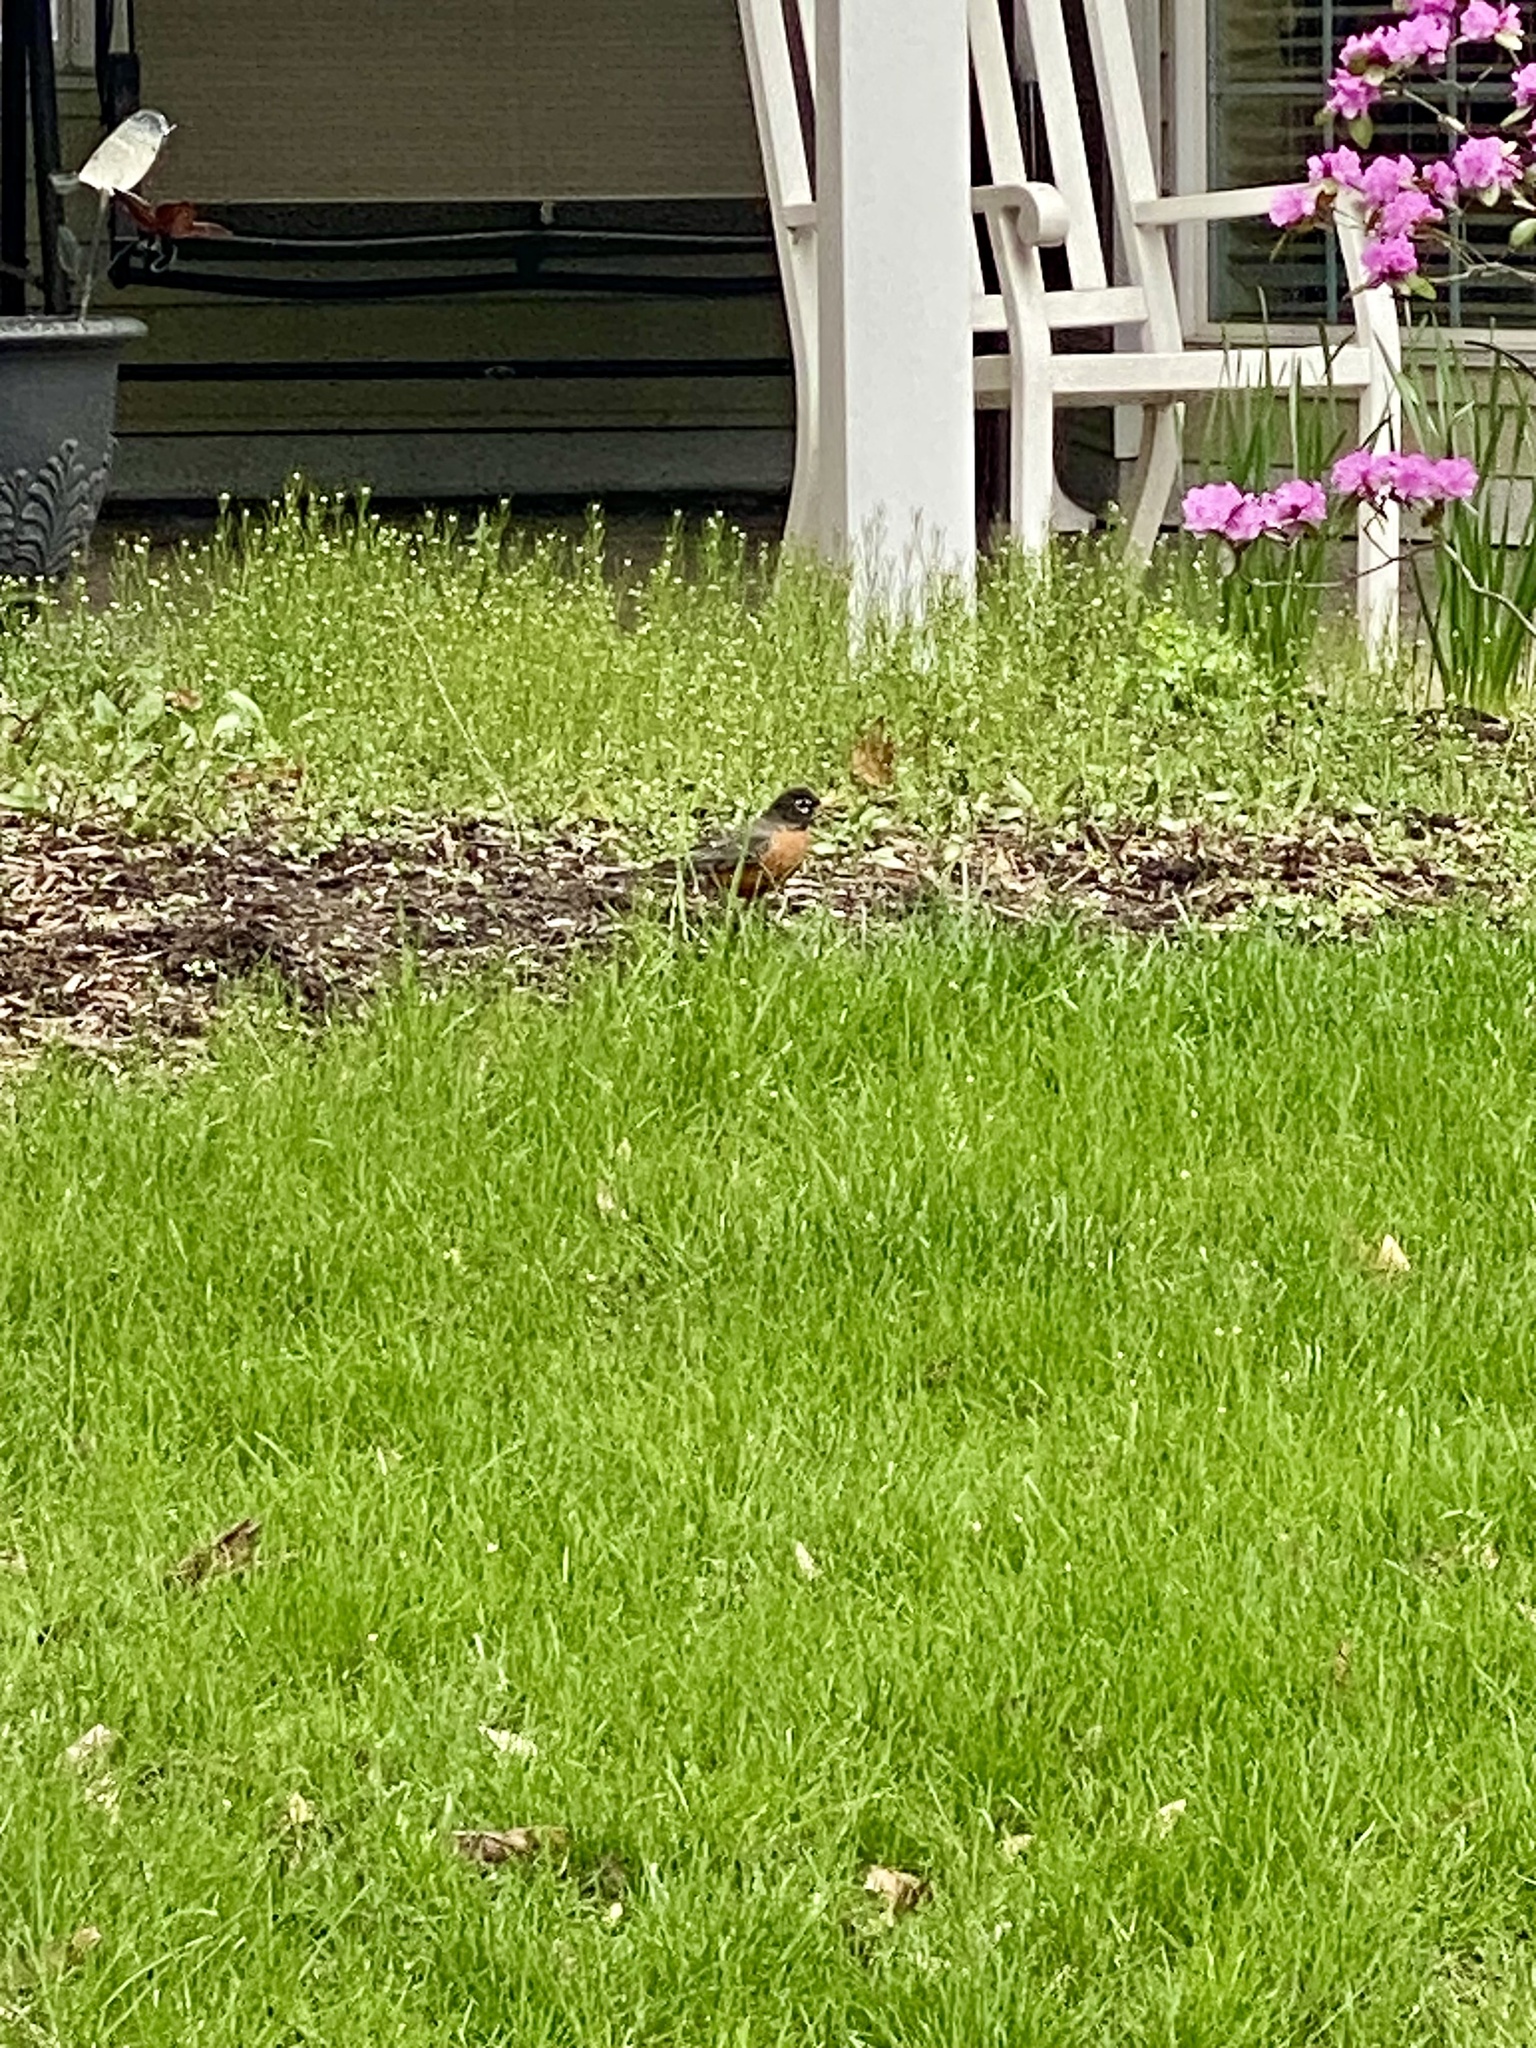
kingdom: Animalia
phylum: Chordata
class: Aves
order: Passeriformes
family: Turdidae
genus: Turdus
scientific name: Turdus migratorius
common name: American robin
